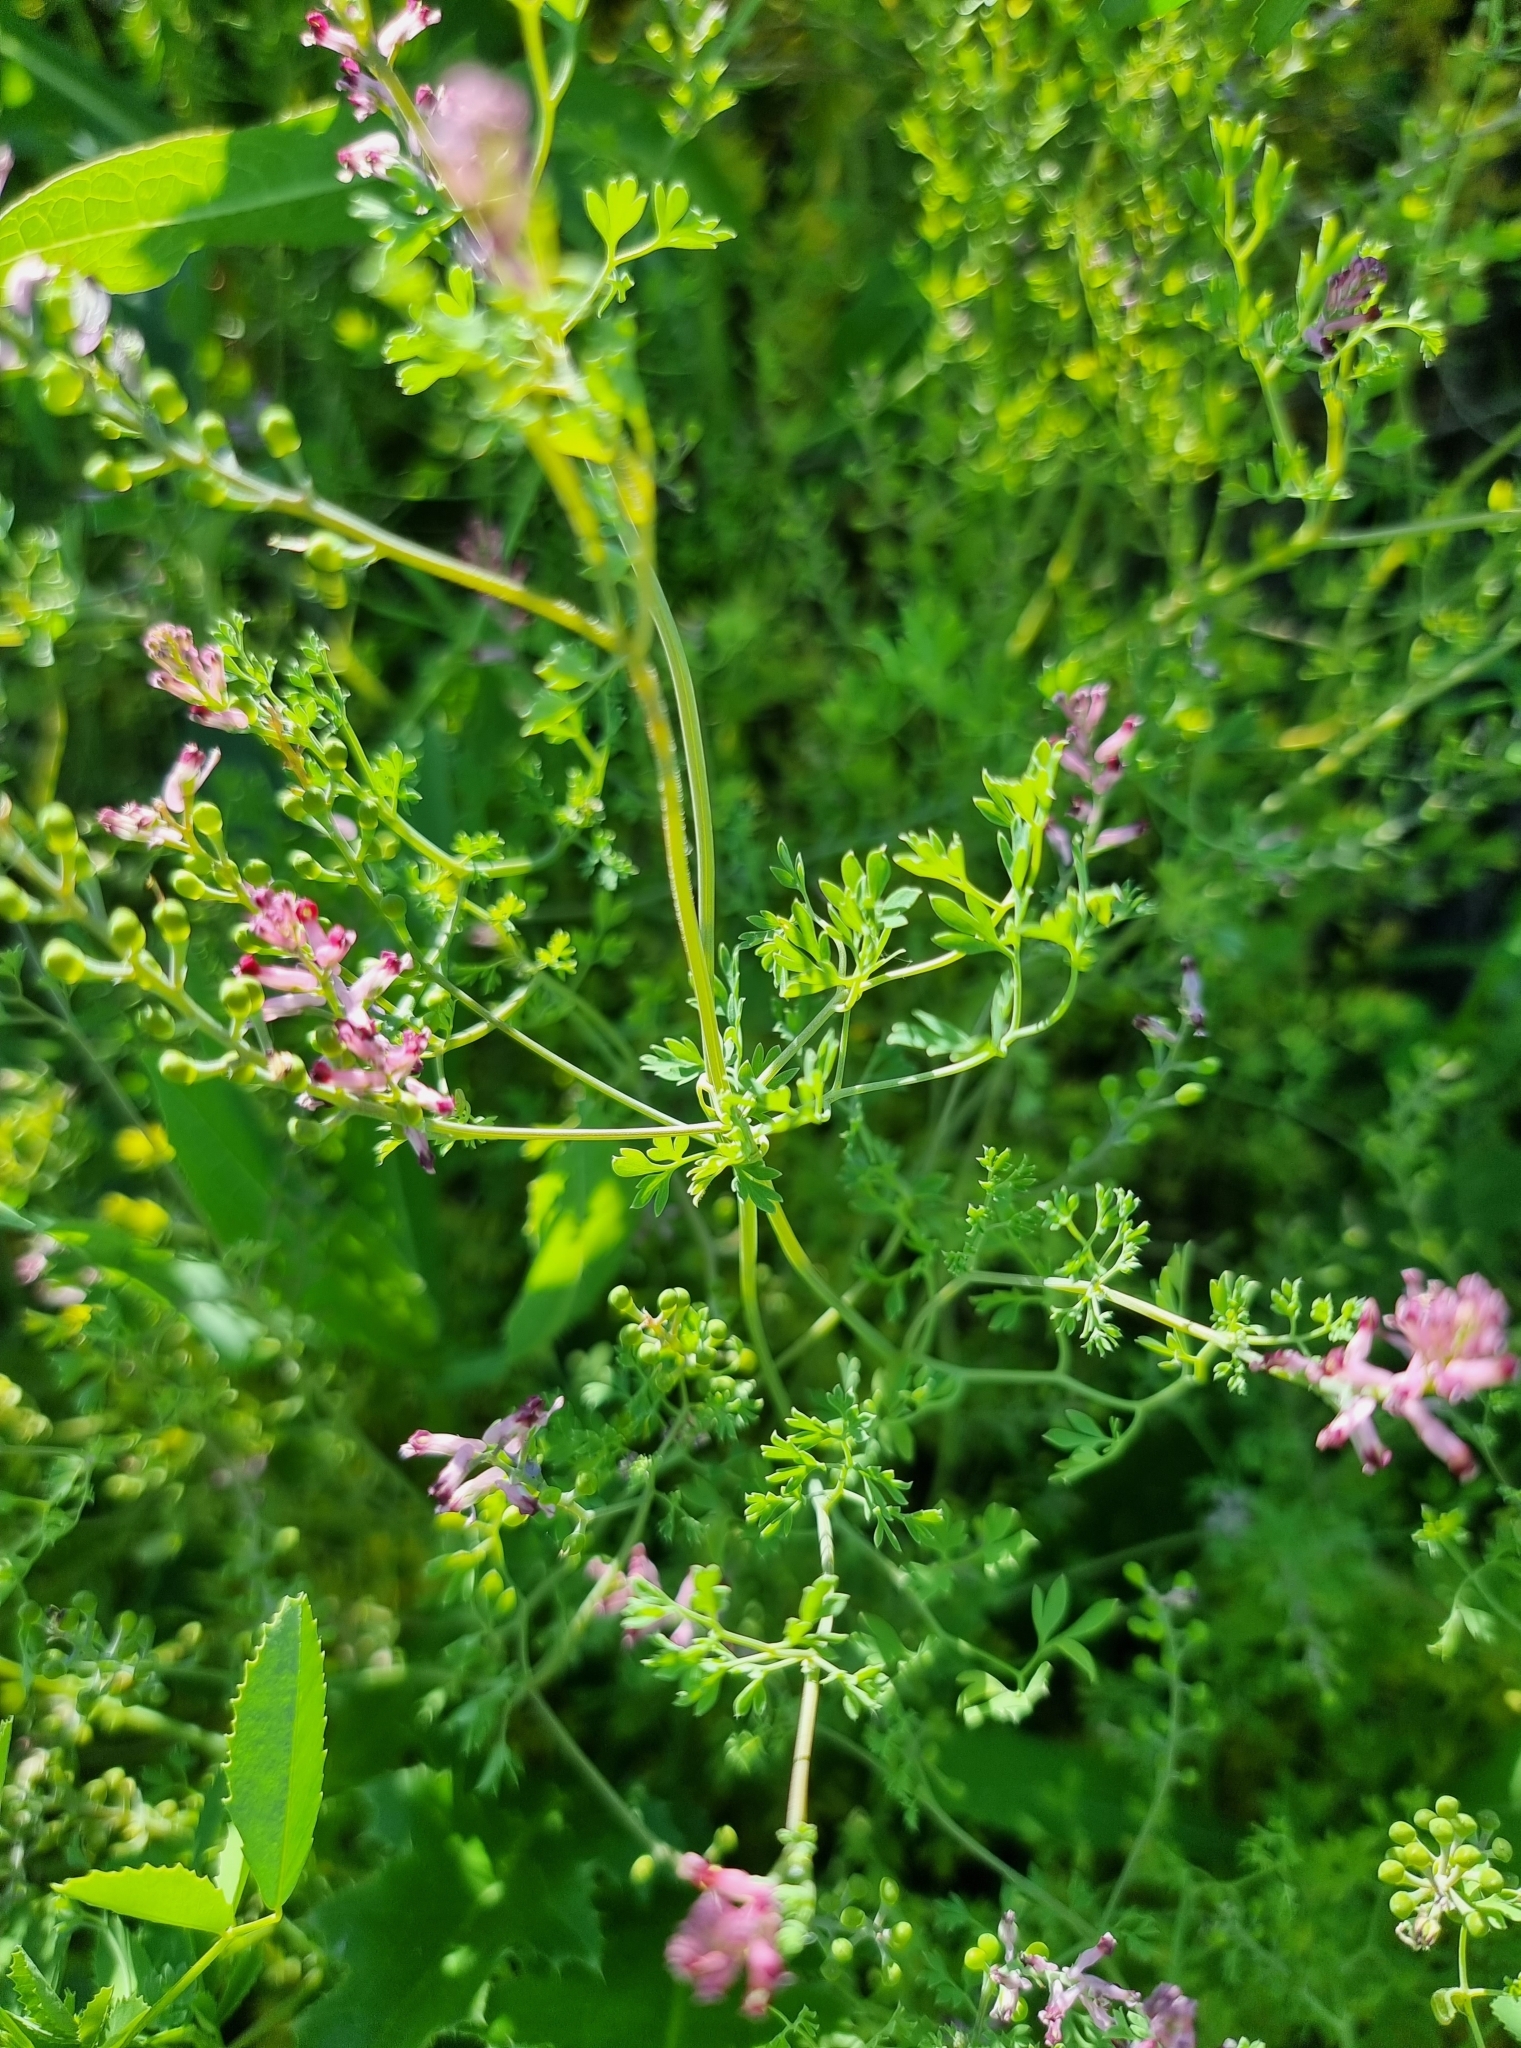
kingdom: Plantae
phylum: Tracheophyta
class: Magnoliopsida
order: Ranunculales
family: Papaveraceae
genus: Fumaria
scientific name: Fumaria schleicheri
